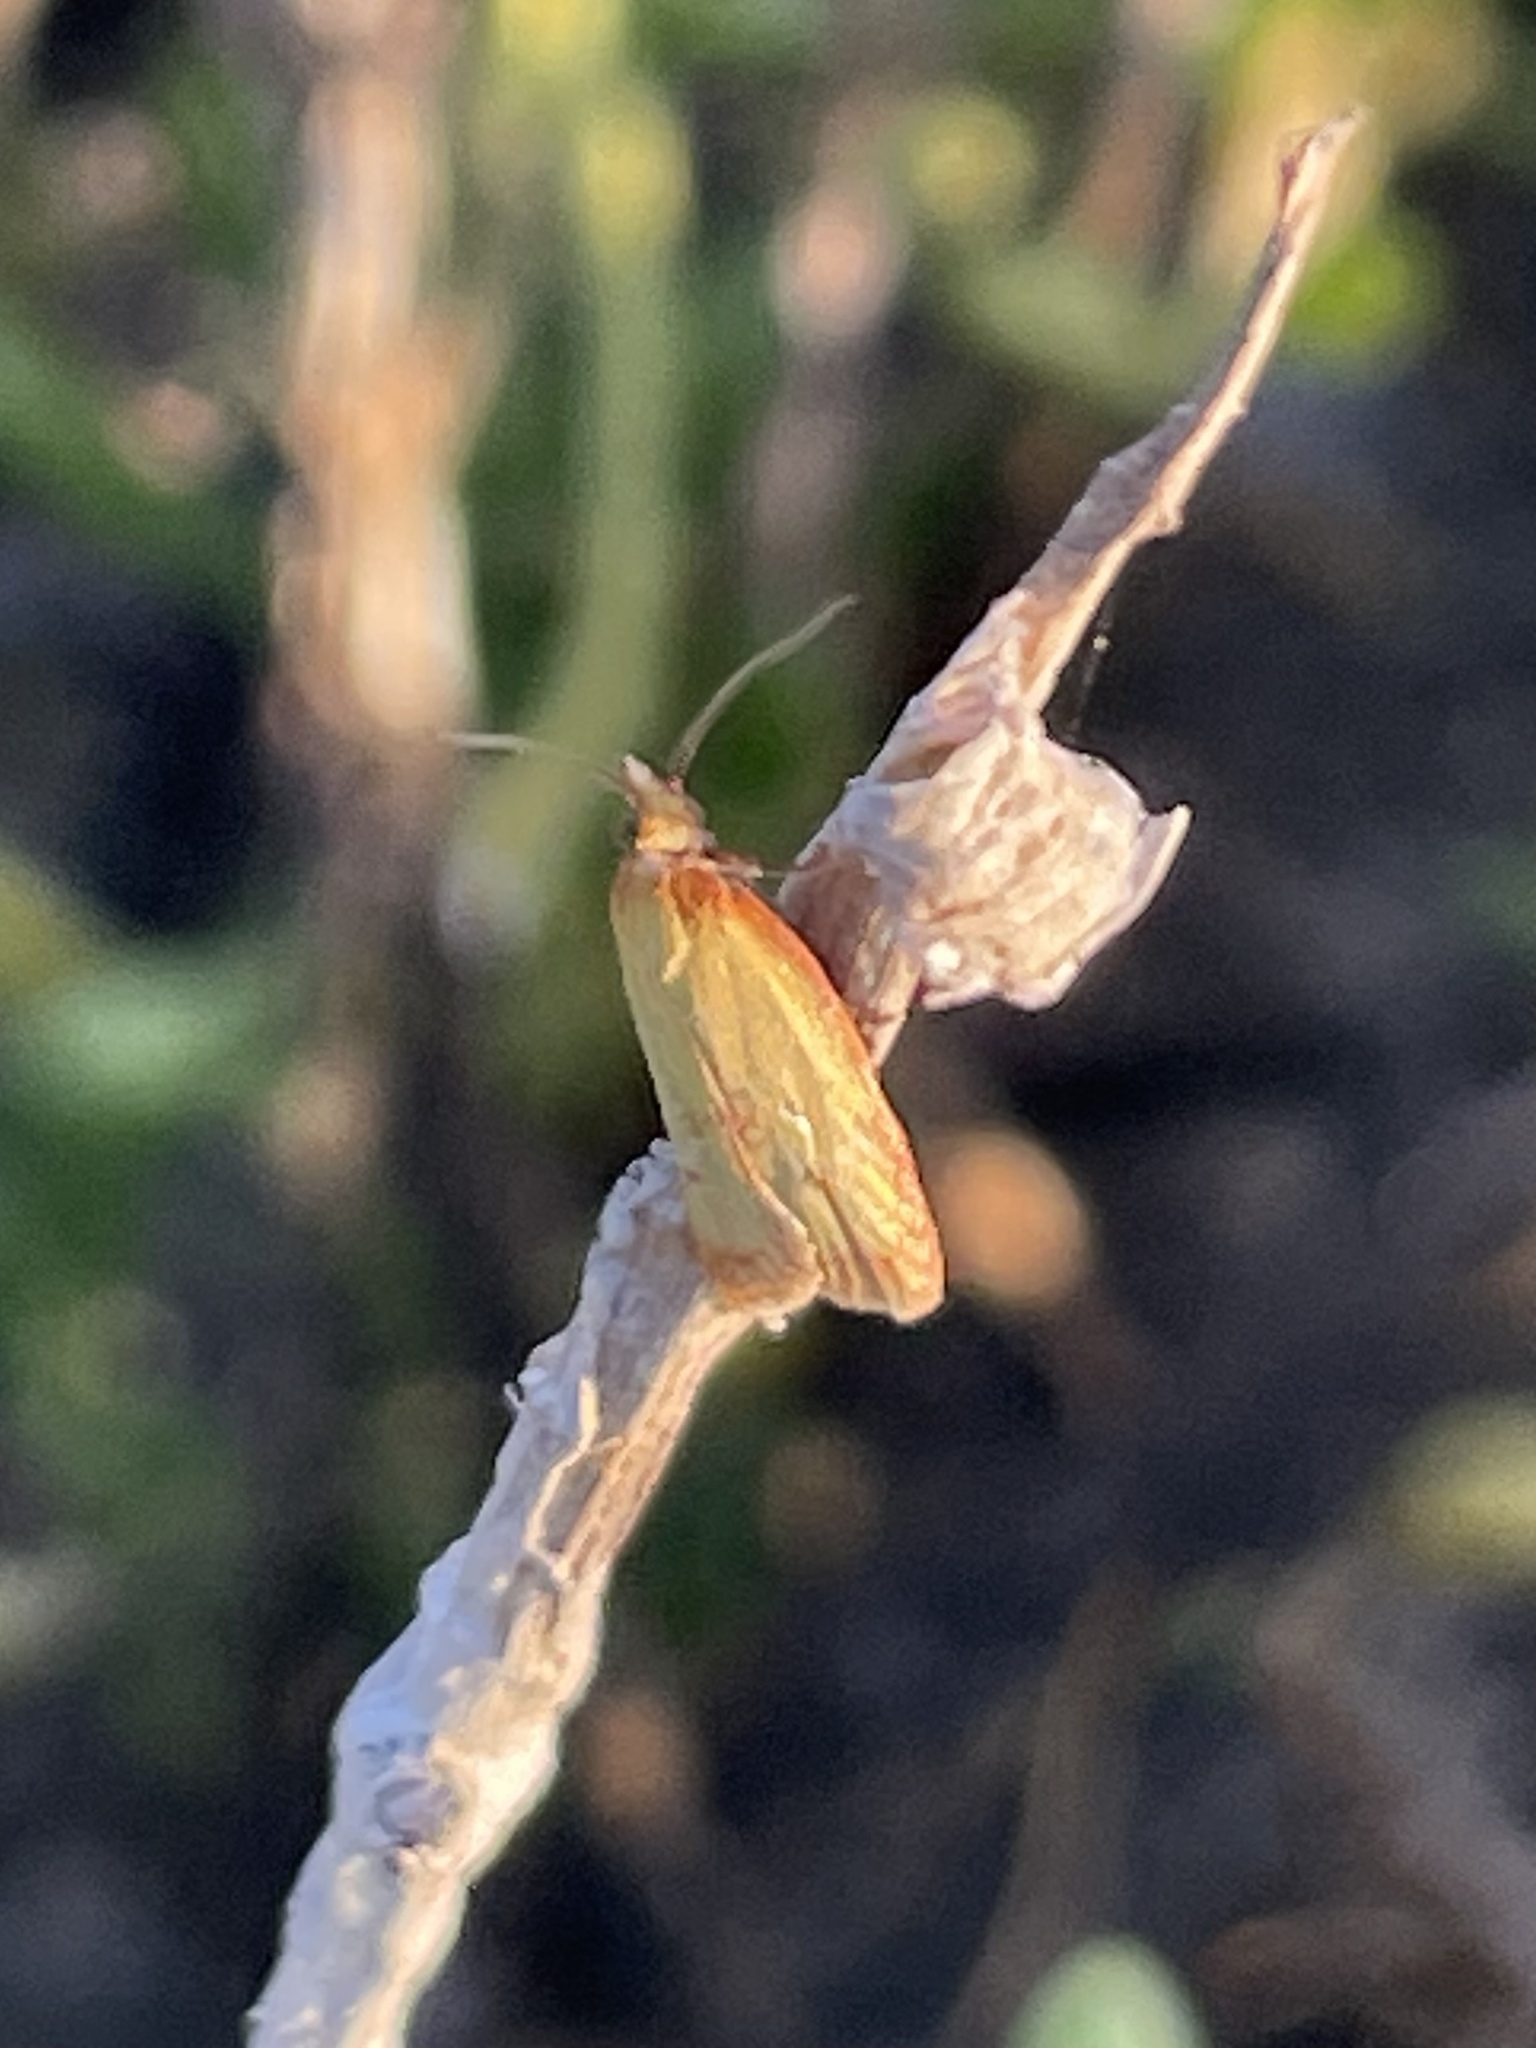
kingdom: Animalia
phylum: Arthropoda
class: Insecta
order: Lepidoptera
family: Tortricidae
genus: Sparganothis
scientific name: Sparganothis sulfureana
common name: Sparganothis fruitworm moth
